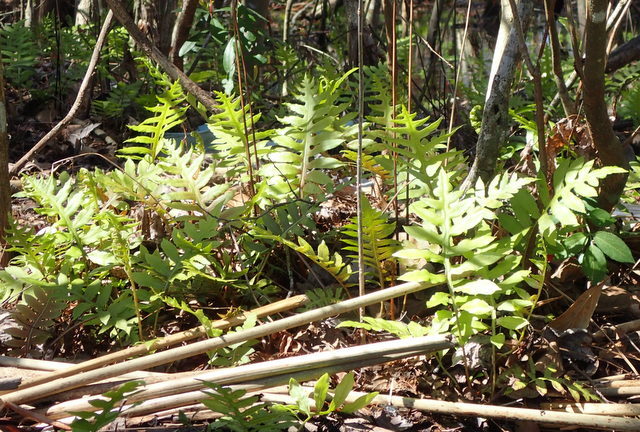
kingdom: Plantae
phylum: Tracheophyta
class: Polypodiopsida
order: Polypodiales
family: Blechnaceae
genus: Lorinseria
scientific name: Lorinseria areolata
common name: Dwarf chain fern
